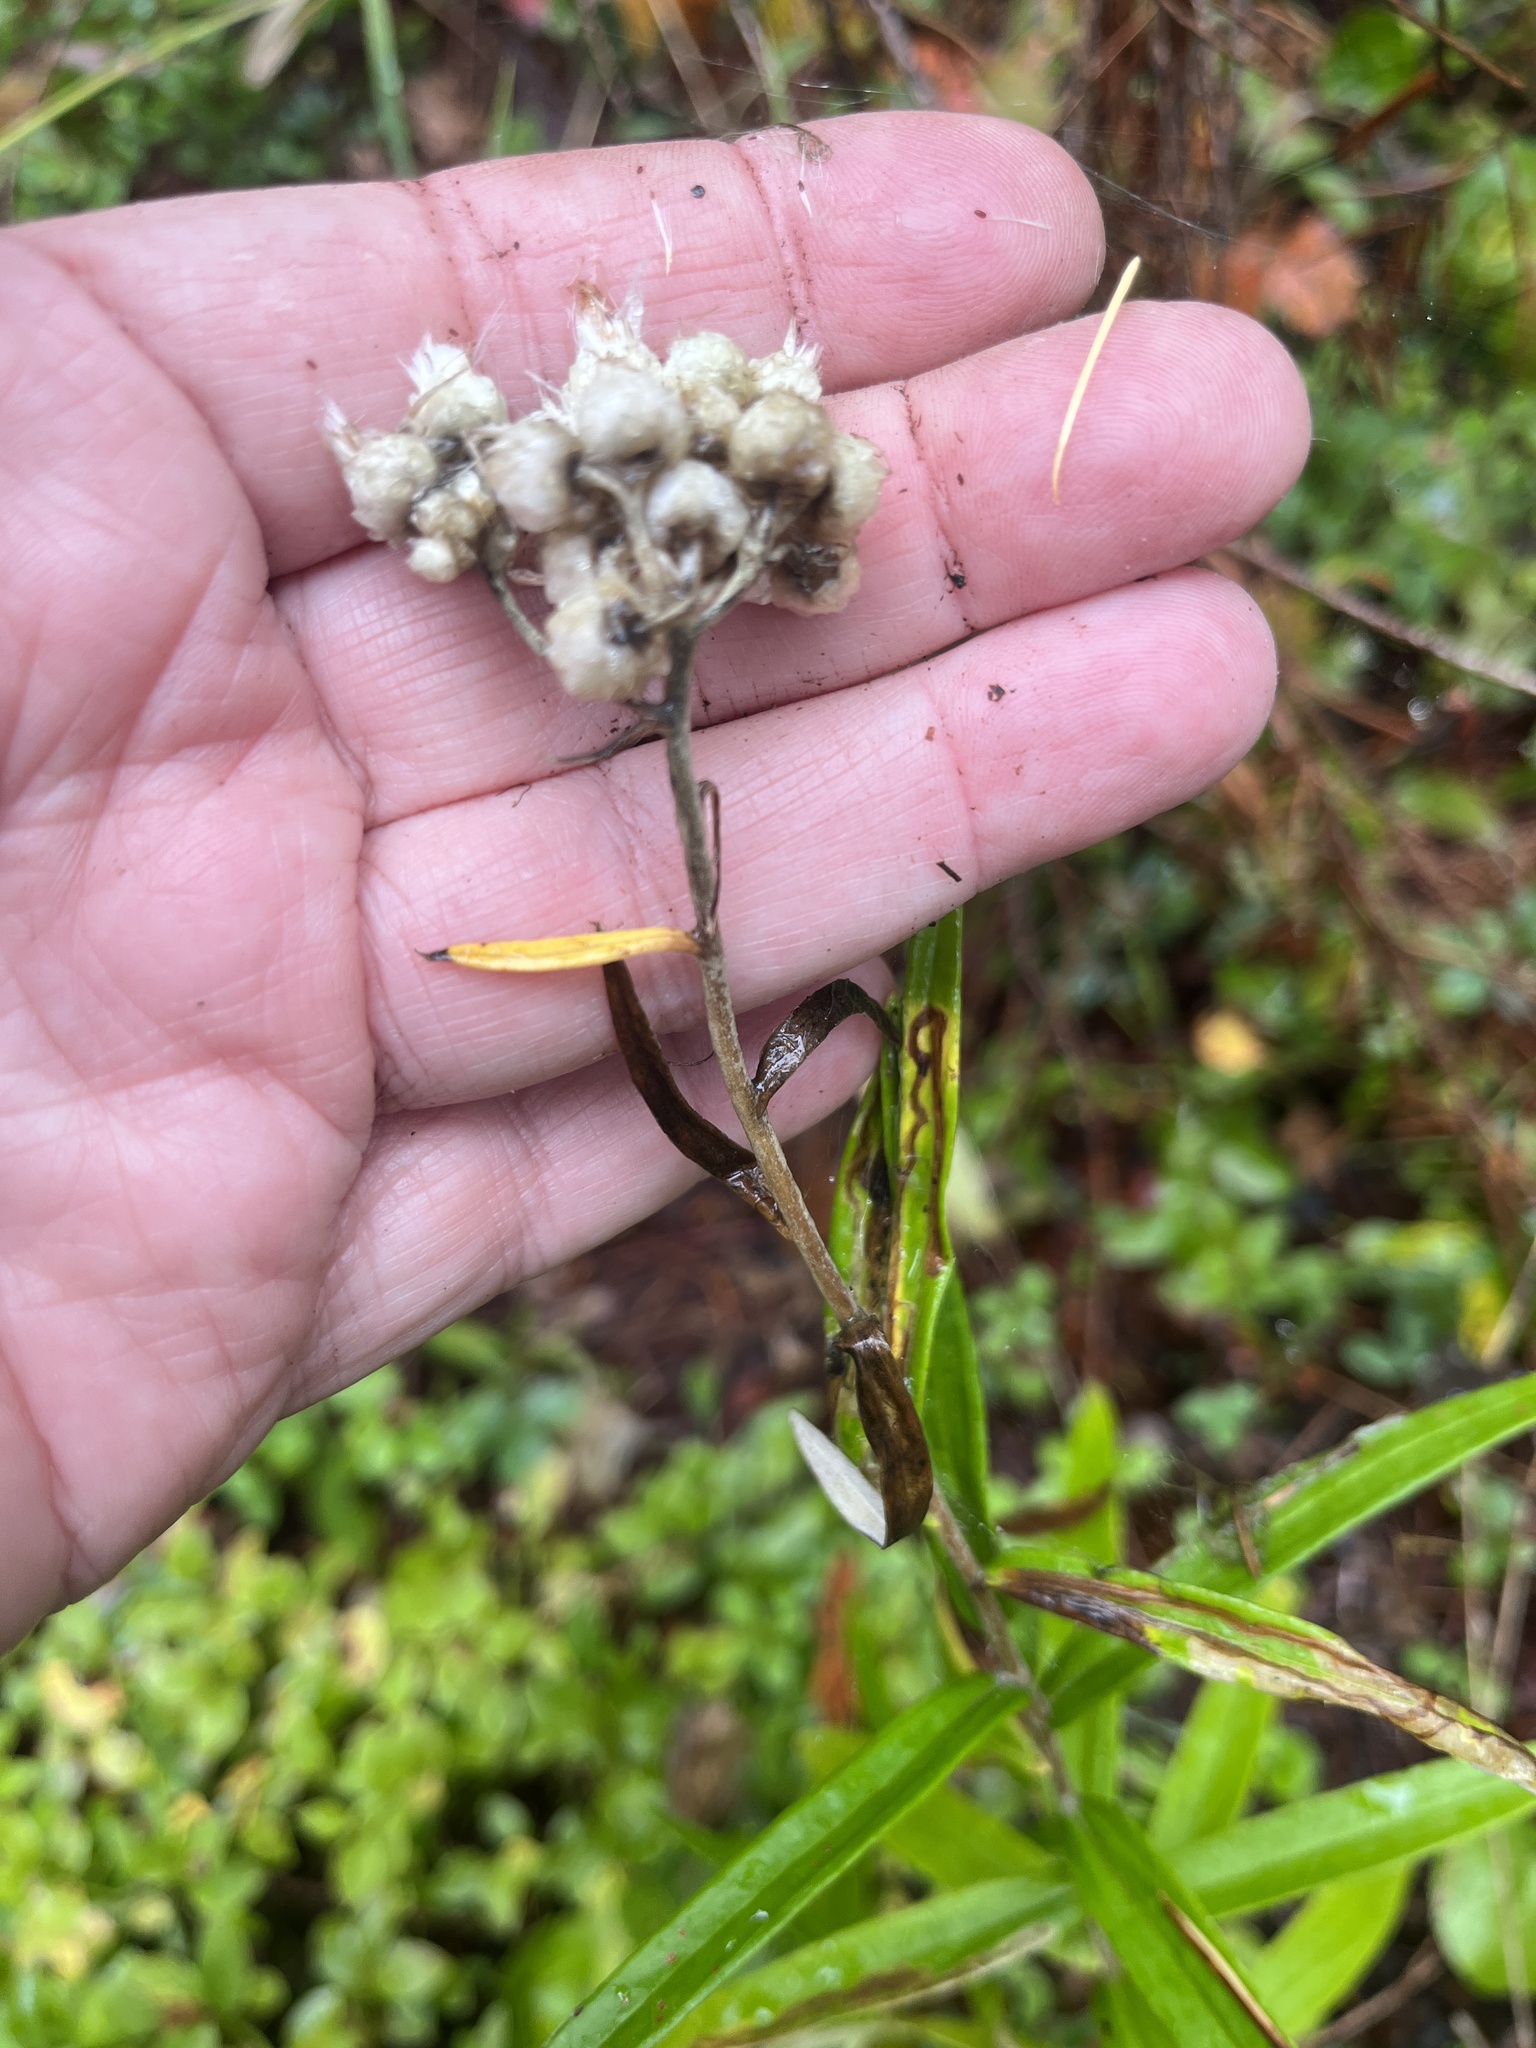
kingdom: Plantae
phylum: Tracheophyta
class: Magnoliopsida
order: Asterales
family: Asteraceae
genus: Anaphalis
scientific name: Anaphalis margaritacea
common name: Pearly everlasting
